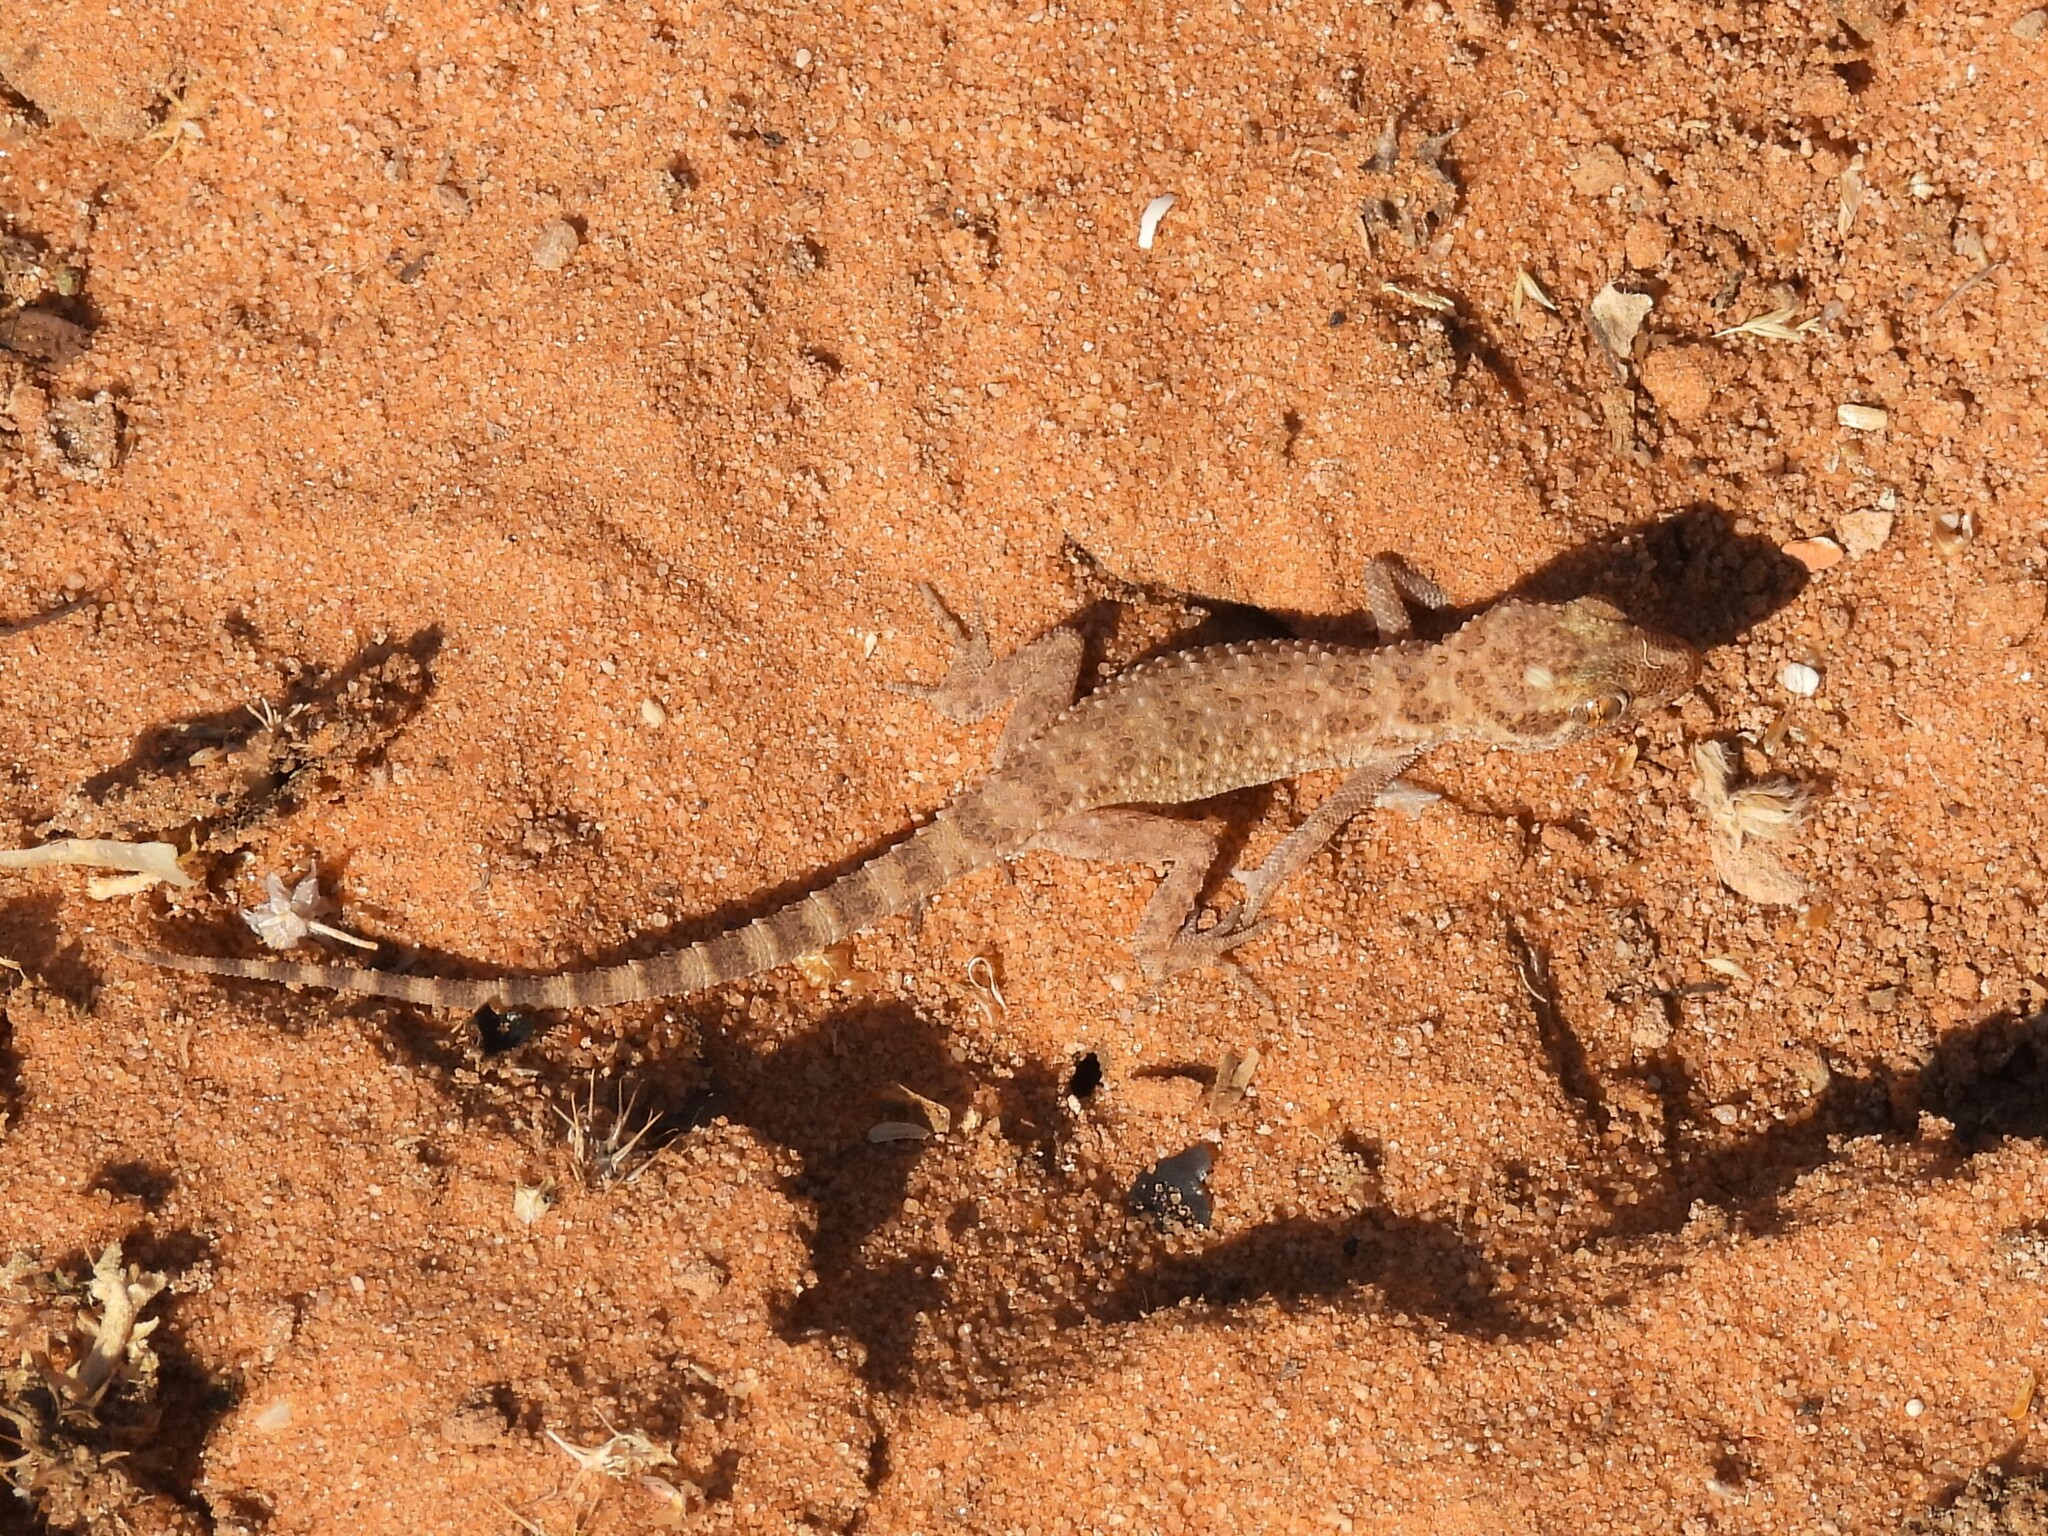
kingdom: Animalia
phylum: Chordata
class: Squamata
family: Gekkonidae
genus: Bunopus
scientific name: Bunopus tuberculatus
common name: Southern tuberculated gecko
